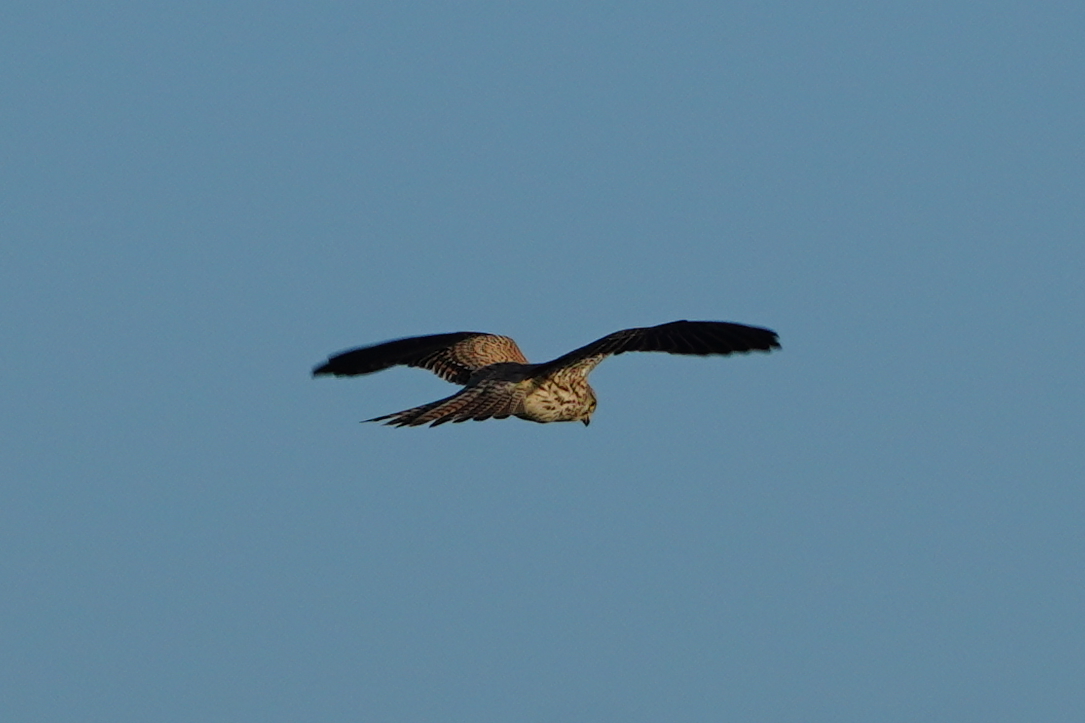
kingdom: Animalia
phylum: Chordata
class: Aves
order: Falconiformes
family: Falconidae
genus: Falco
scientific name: Falco tinnunculus
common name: Common kestrel
